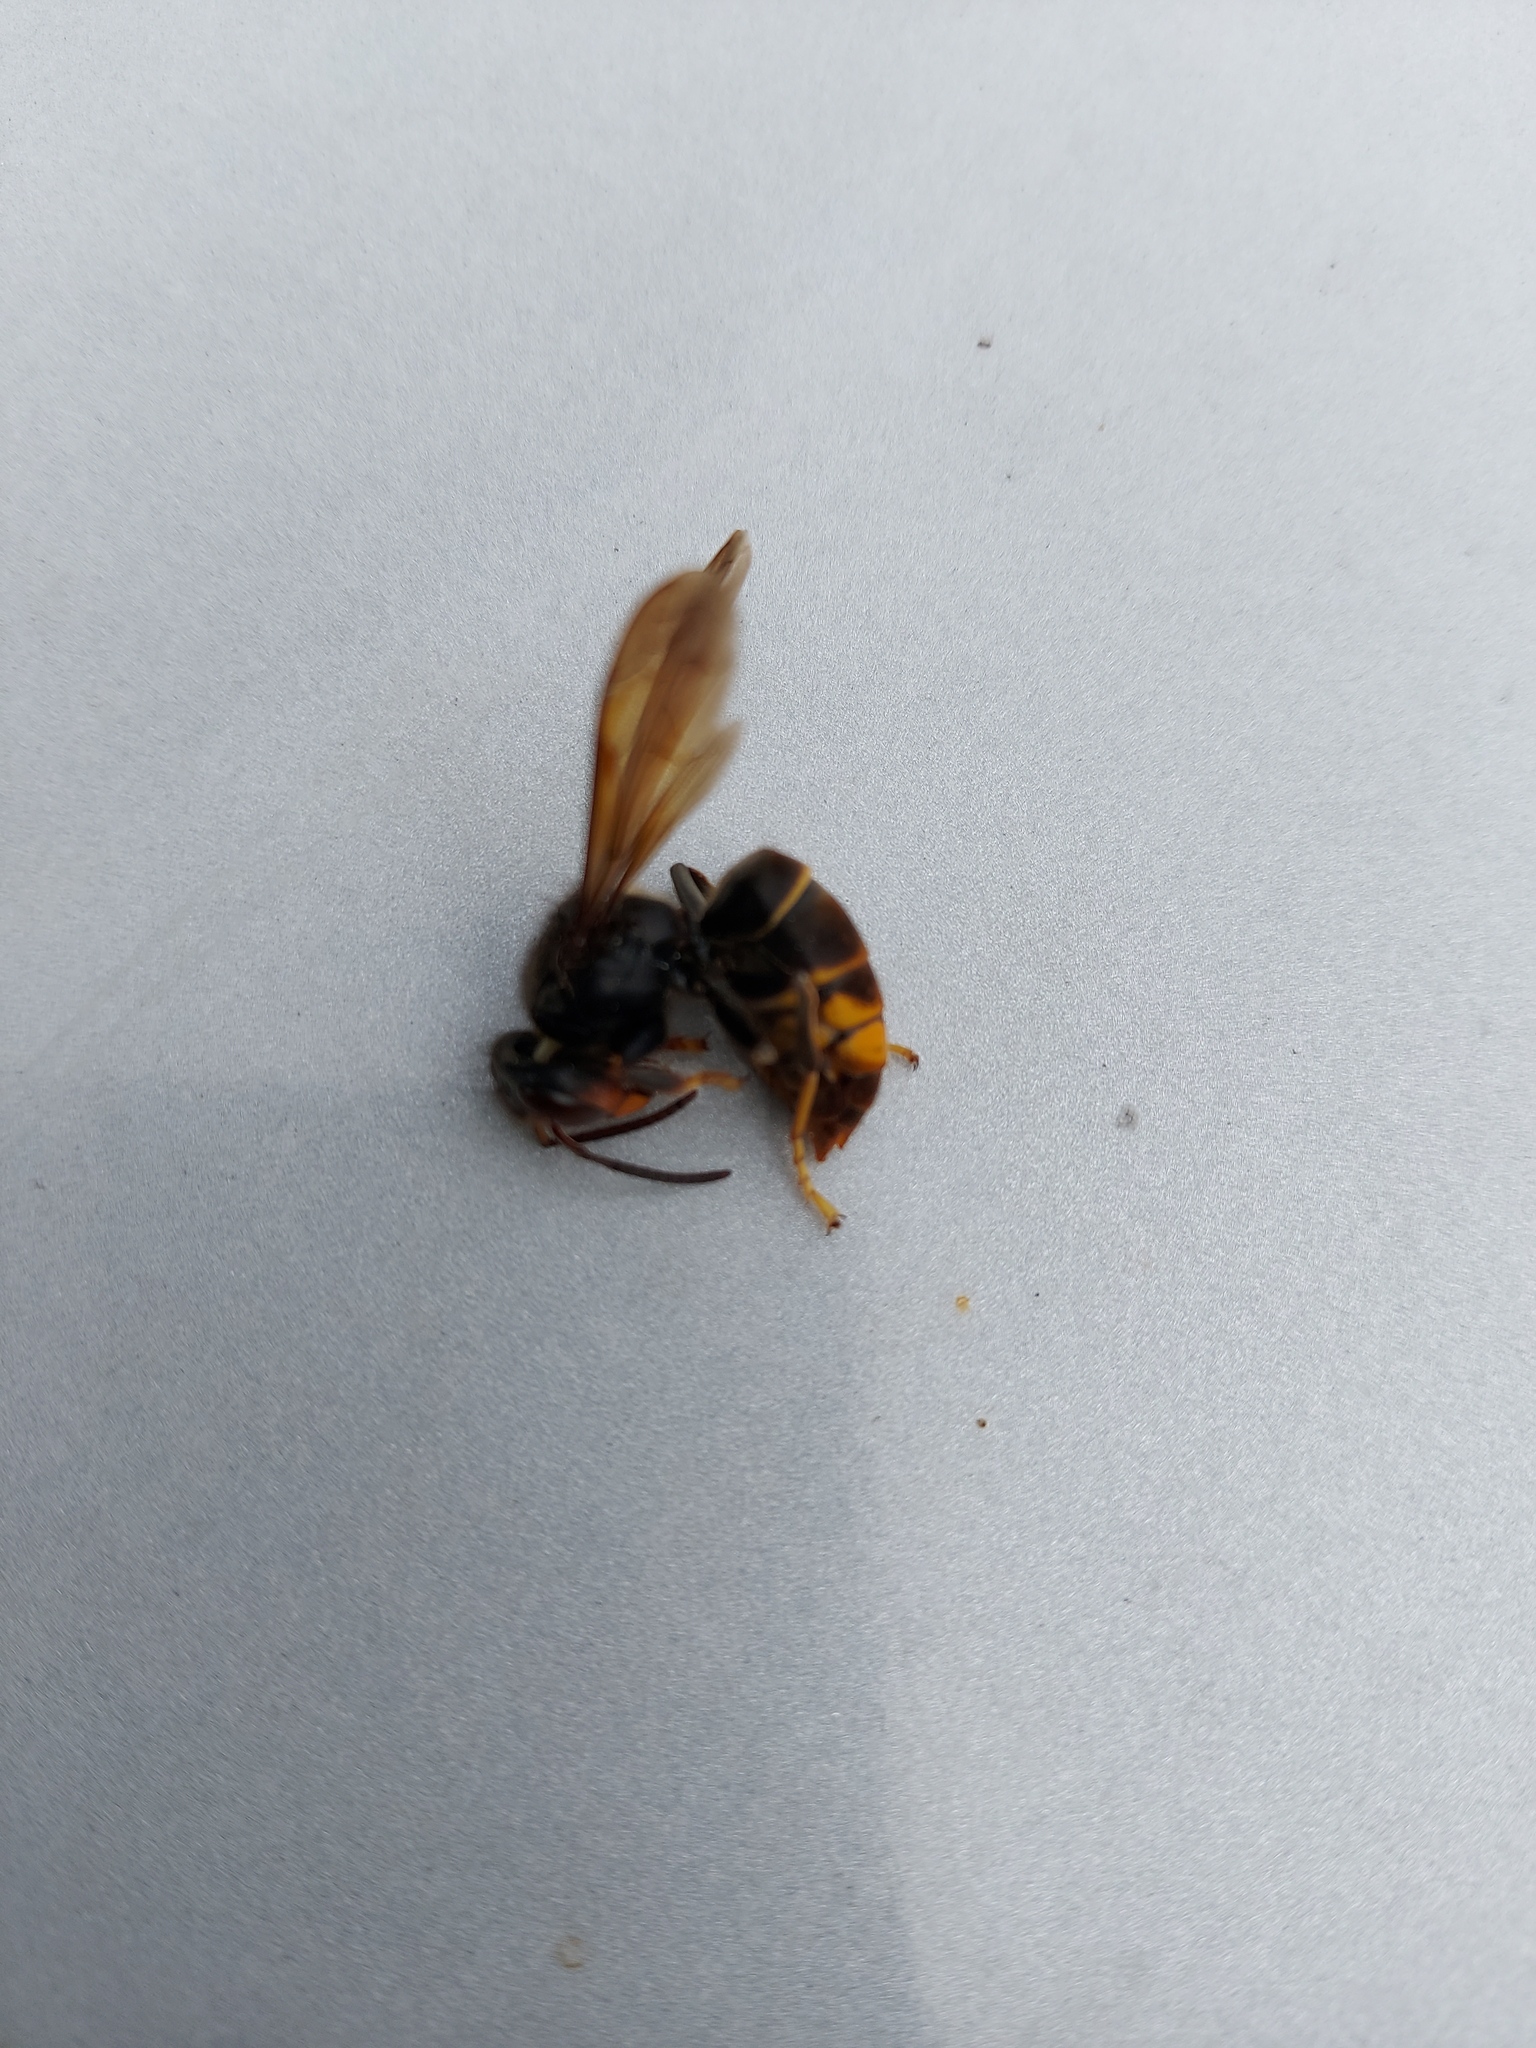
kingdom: Animalia
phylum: Arthropoda
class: Insecta
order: Hymenoptera
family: Vespidae
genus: Vespa
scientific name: Vespa velutina
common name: Asian hornet
